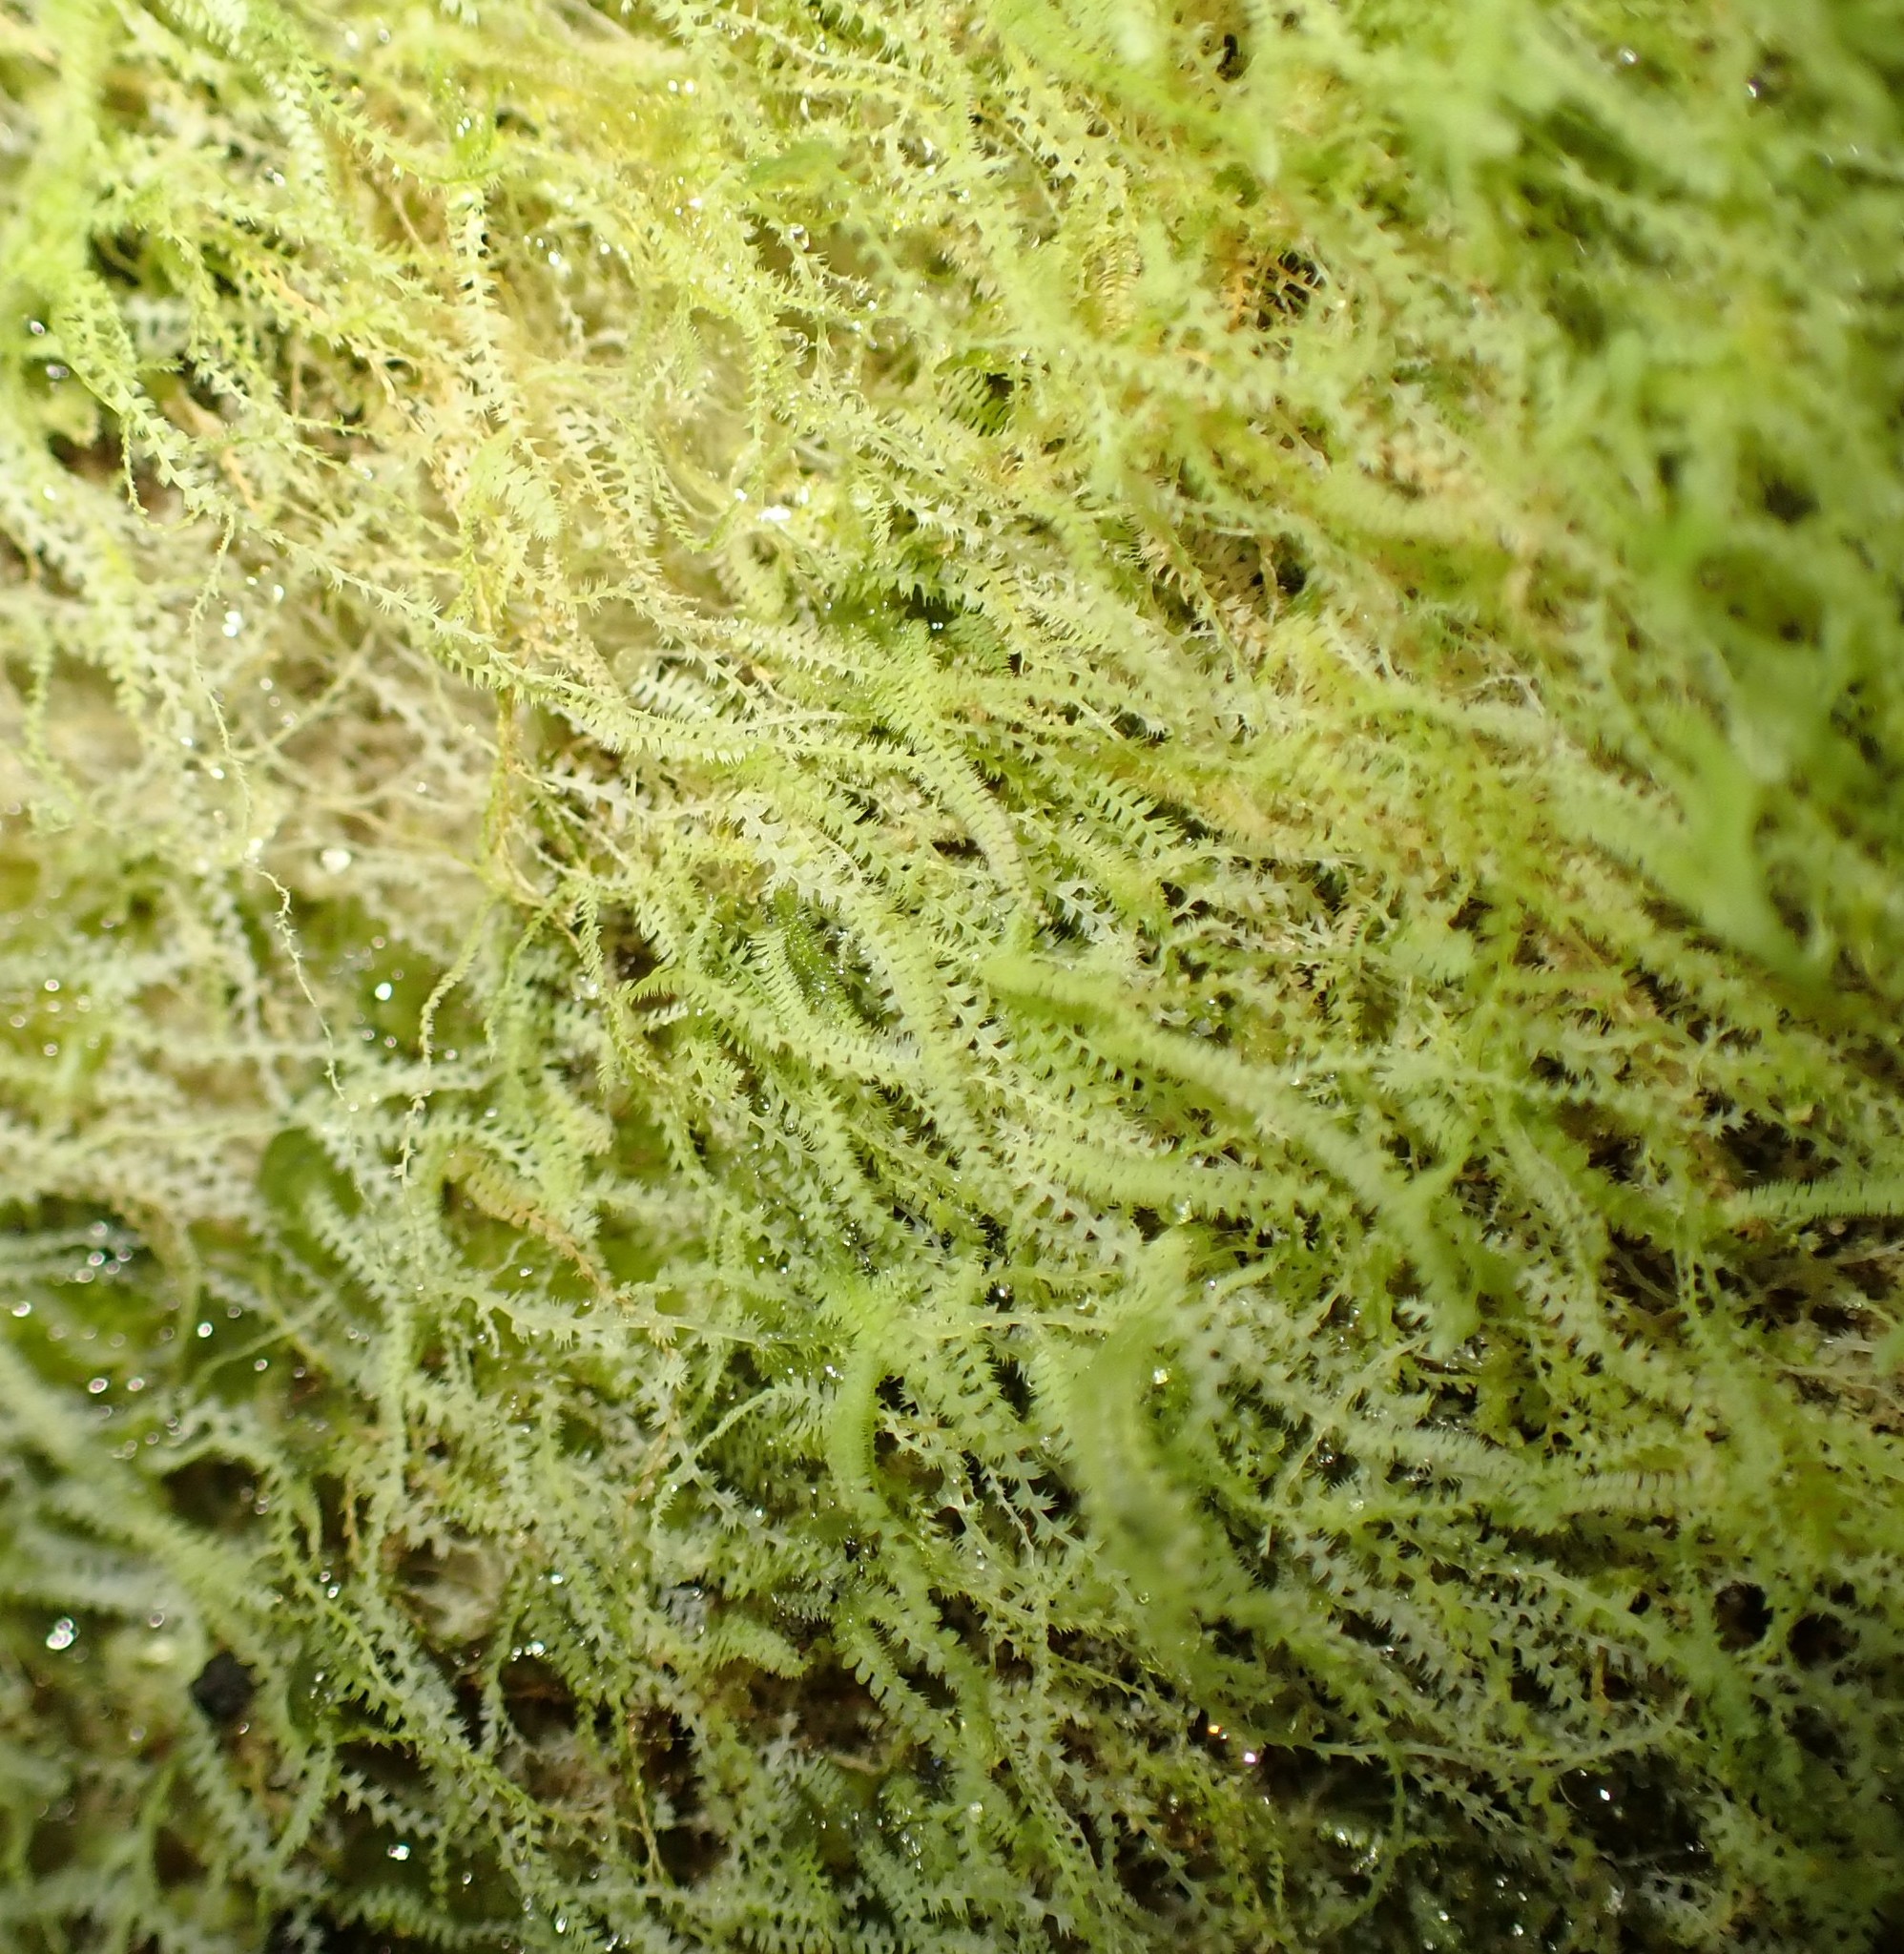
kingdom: Plantae
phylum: Marchantiophyta
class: Jungermanniopsida
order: Jungermanniales
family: Lepidoziaceae
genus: Ceramanus
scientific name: Ceramanus centipes
